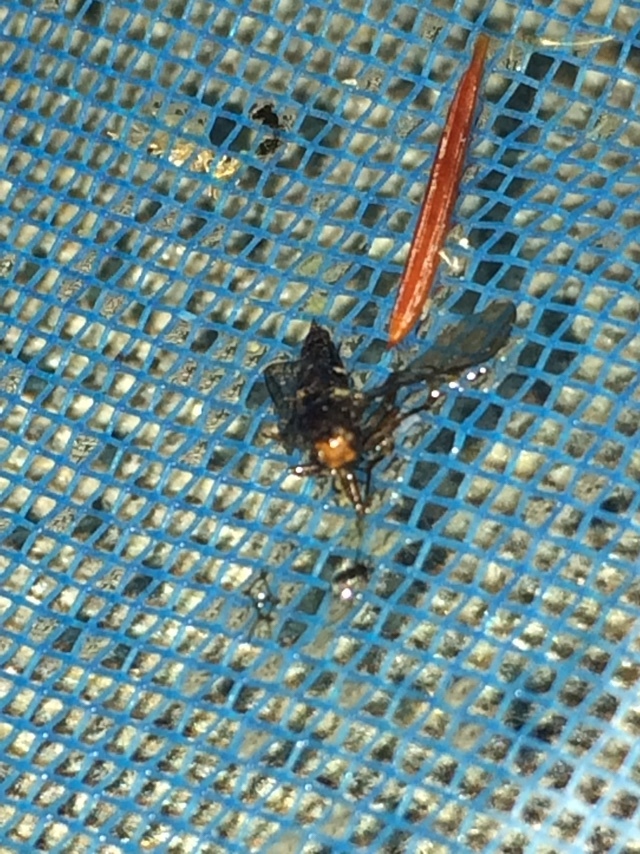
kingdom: Animalia
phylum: Arthropoda
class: Insecta
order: Diptera
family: Stratiomyidae
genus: Inopus
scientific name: Inopus rubriceps
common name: Soldier fly
